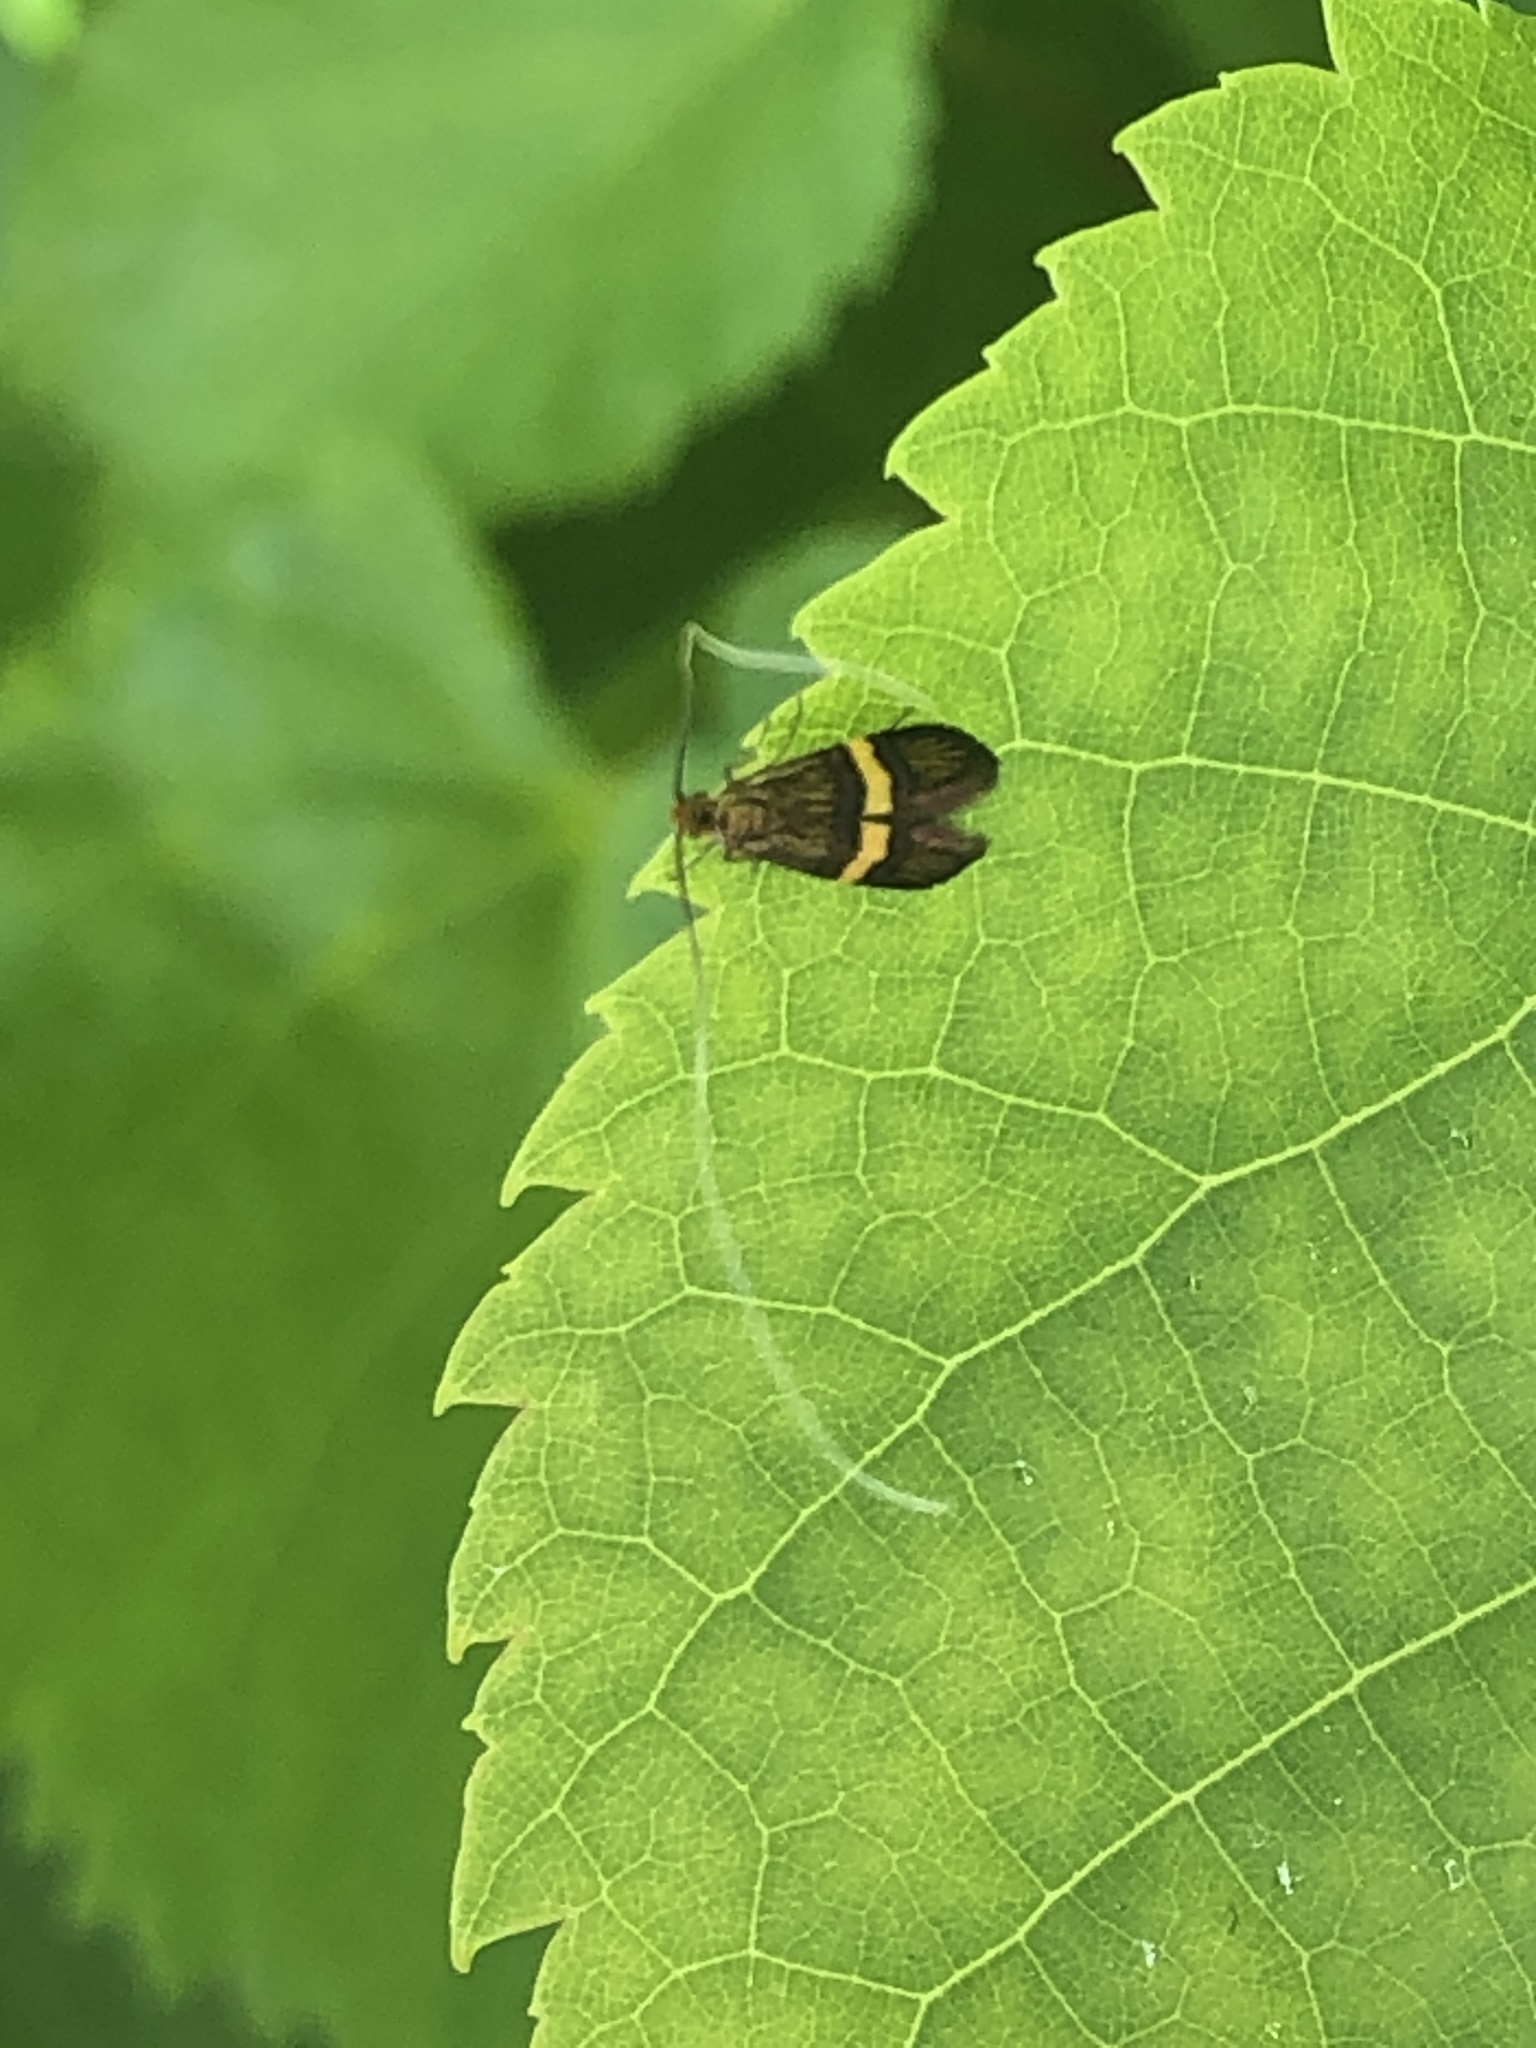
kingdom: Animalia
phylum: Arthropoda
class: Insecta
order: Lepidoptera
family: Adelidae
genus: Nemophora
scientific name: Nemophora degeerella
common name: Yellow-barred long-horn
